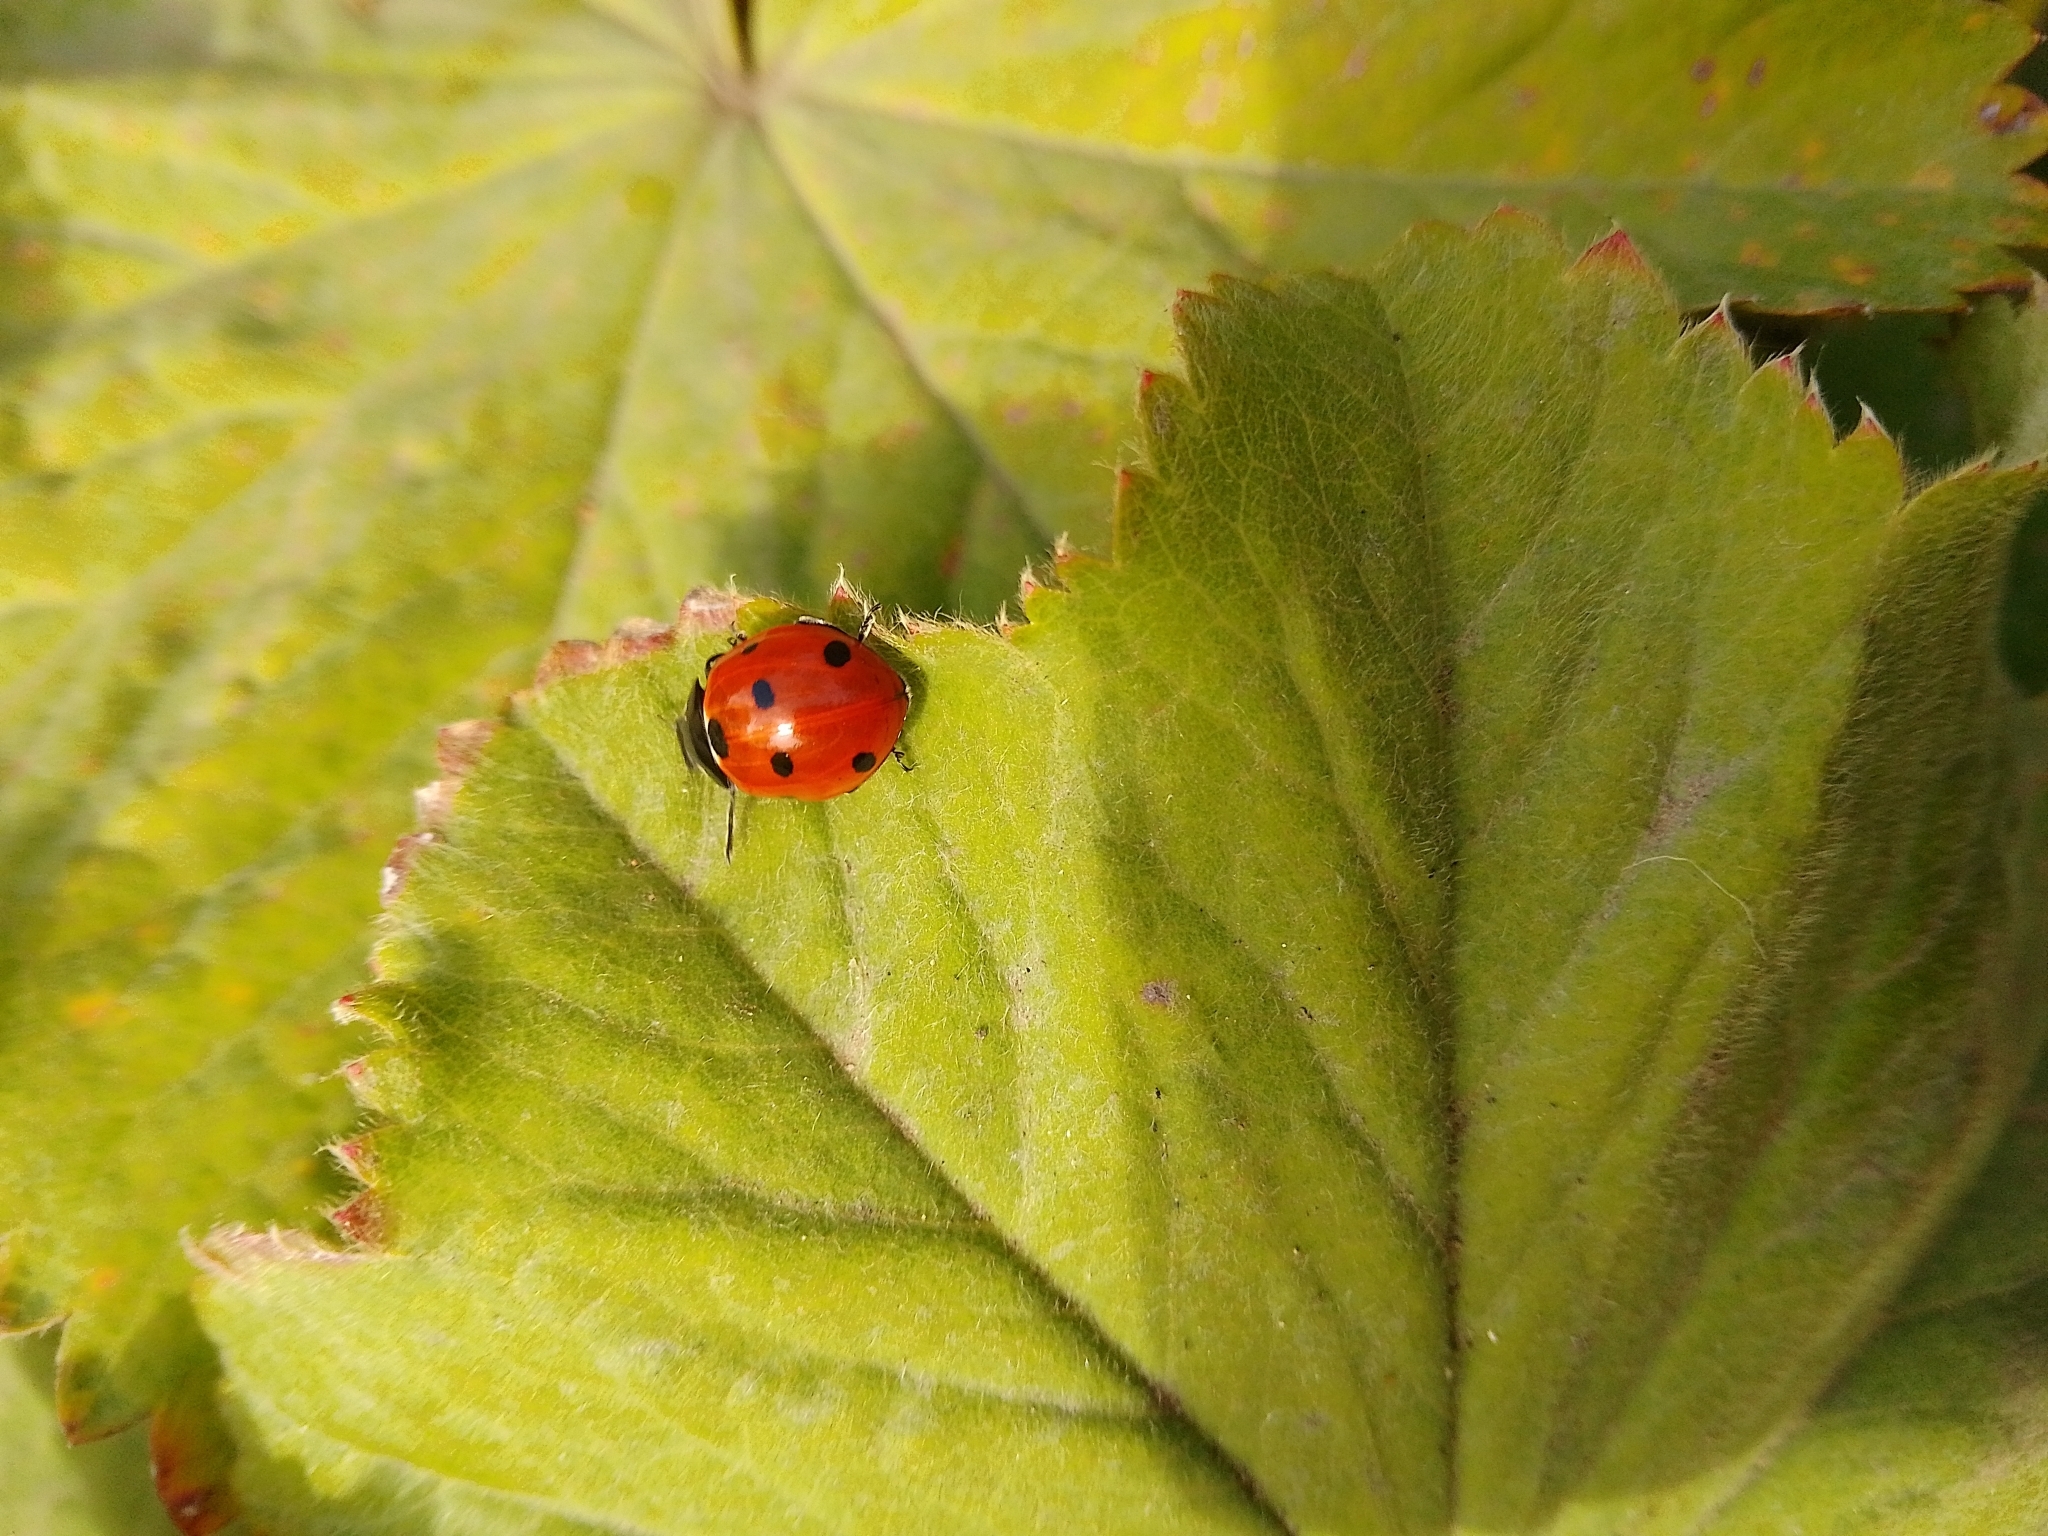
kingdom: Animalia
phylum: Arthropoda
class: Insecta
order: Coleoptera
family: Coccinellidae
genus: Coccinella
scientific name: Coccinella septempunctata
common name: Sevenspotted lady beetle
